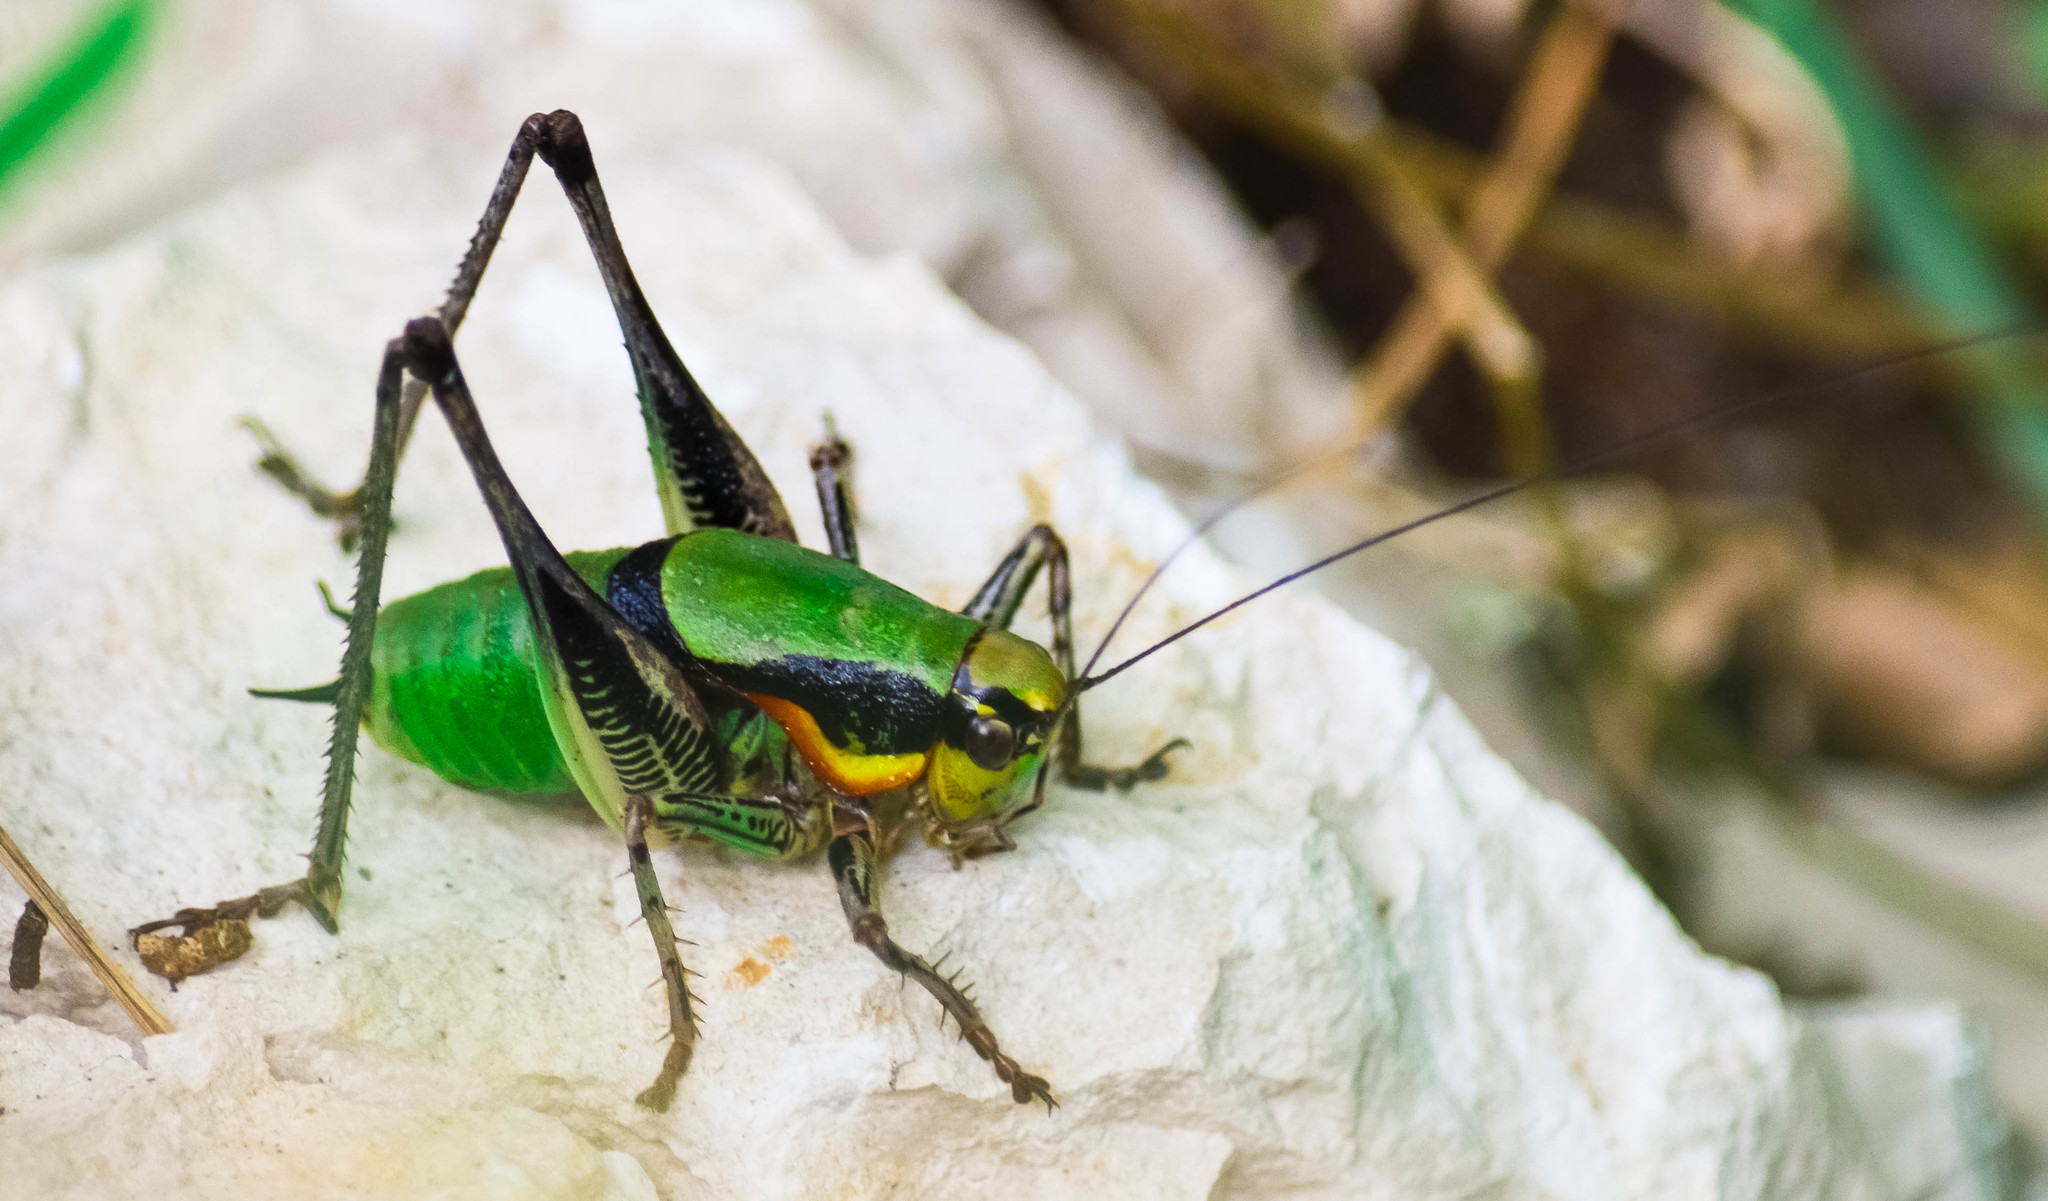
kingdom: Animalia
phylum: Arthropoda
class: Insecta
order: Orthoptera
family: Tettigoniidae
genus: Eupholidoptera
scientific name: Eupholidoptera schmidti
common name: Schmidt's marbled bush-cricket
